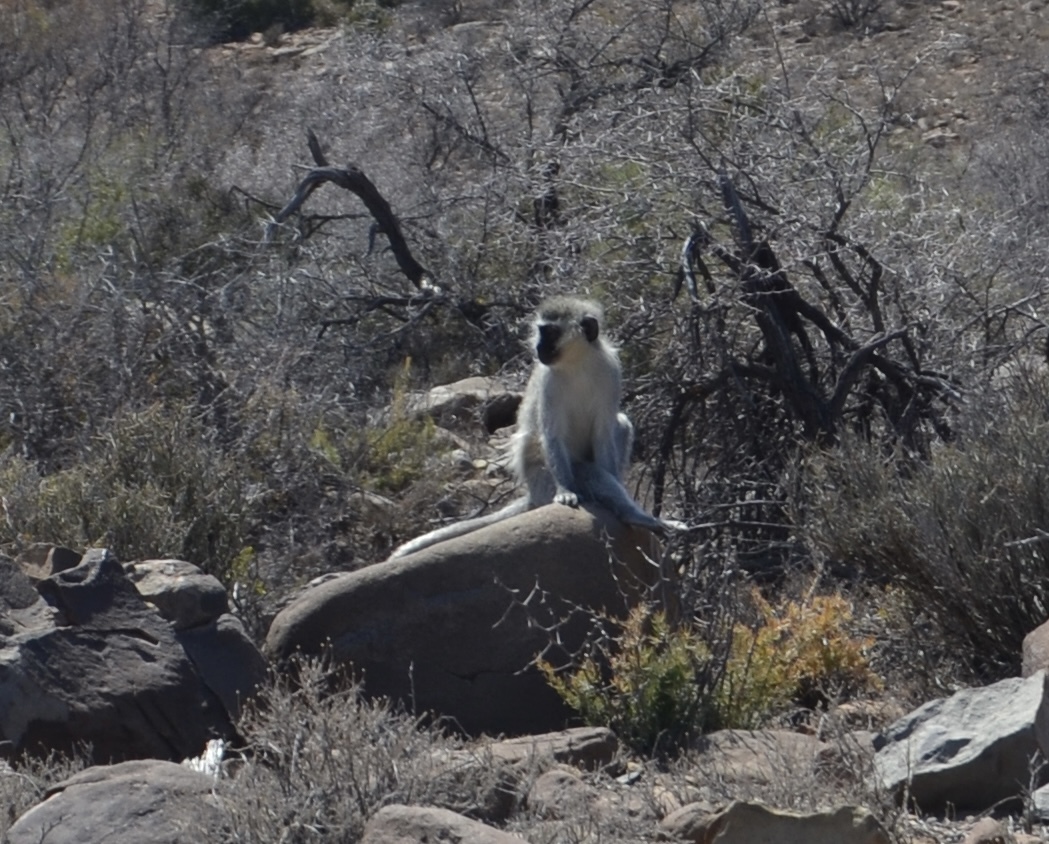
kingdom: Animalia
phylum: Chordata
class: Mammalia
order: Primates
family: Cercopithecidae
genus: Chlorocebus
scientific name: Chlorocebus pygerythrus
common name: Vervet monkey
